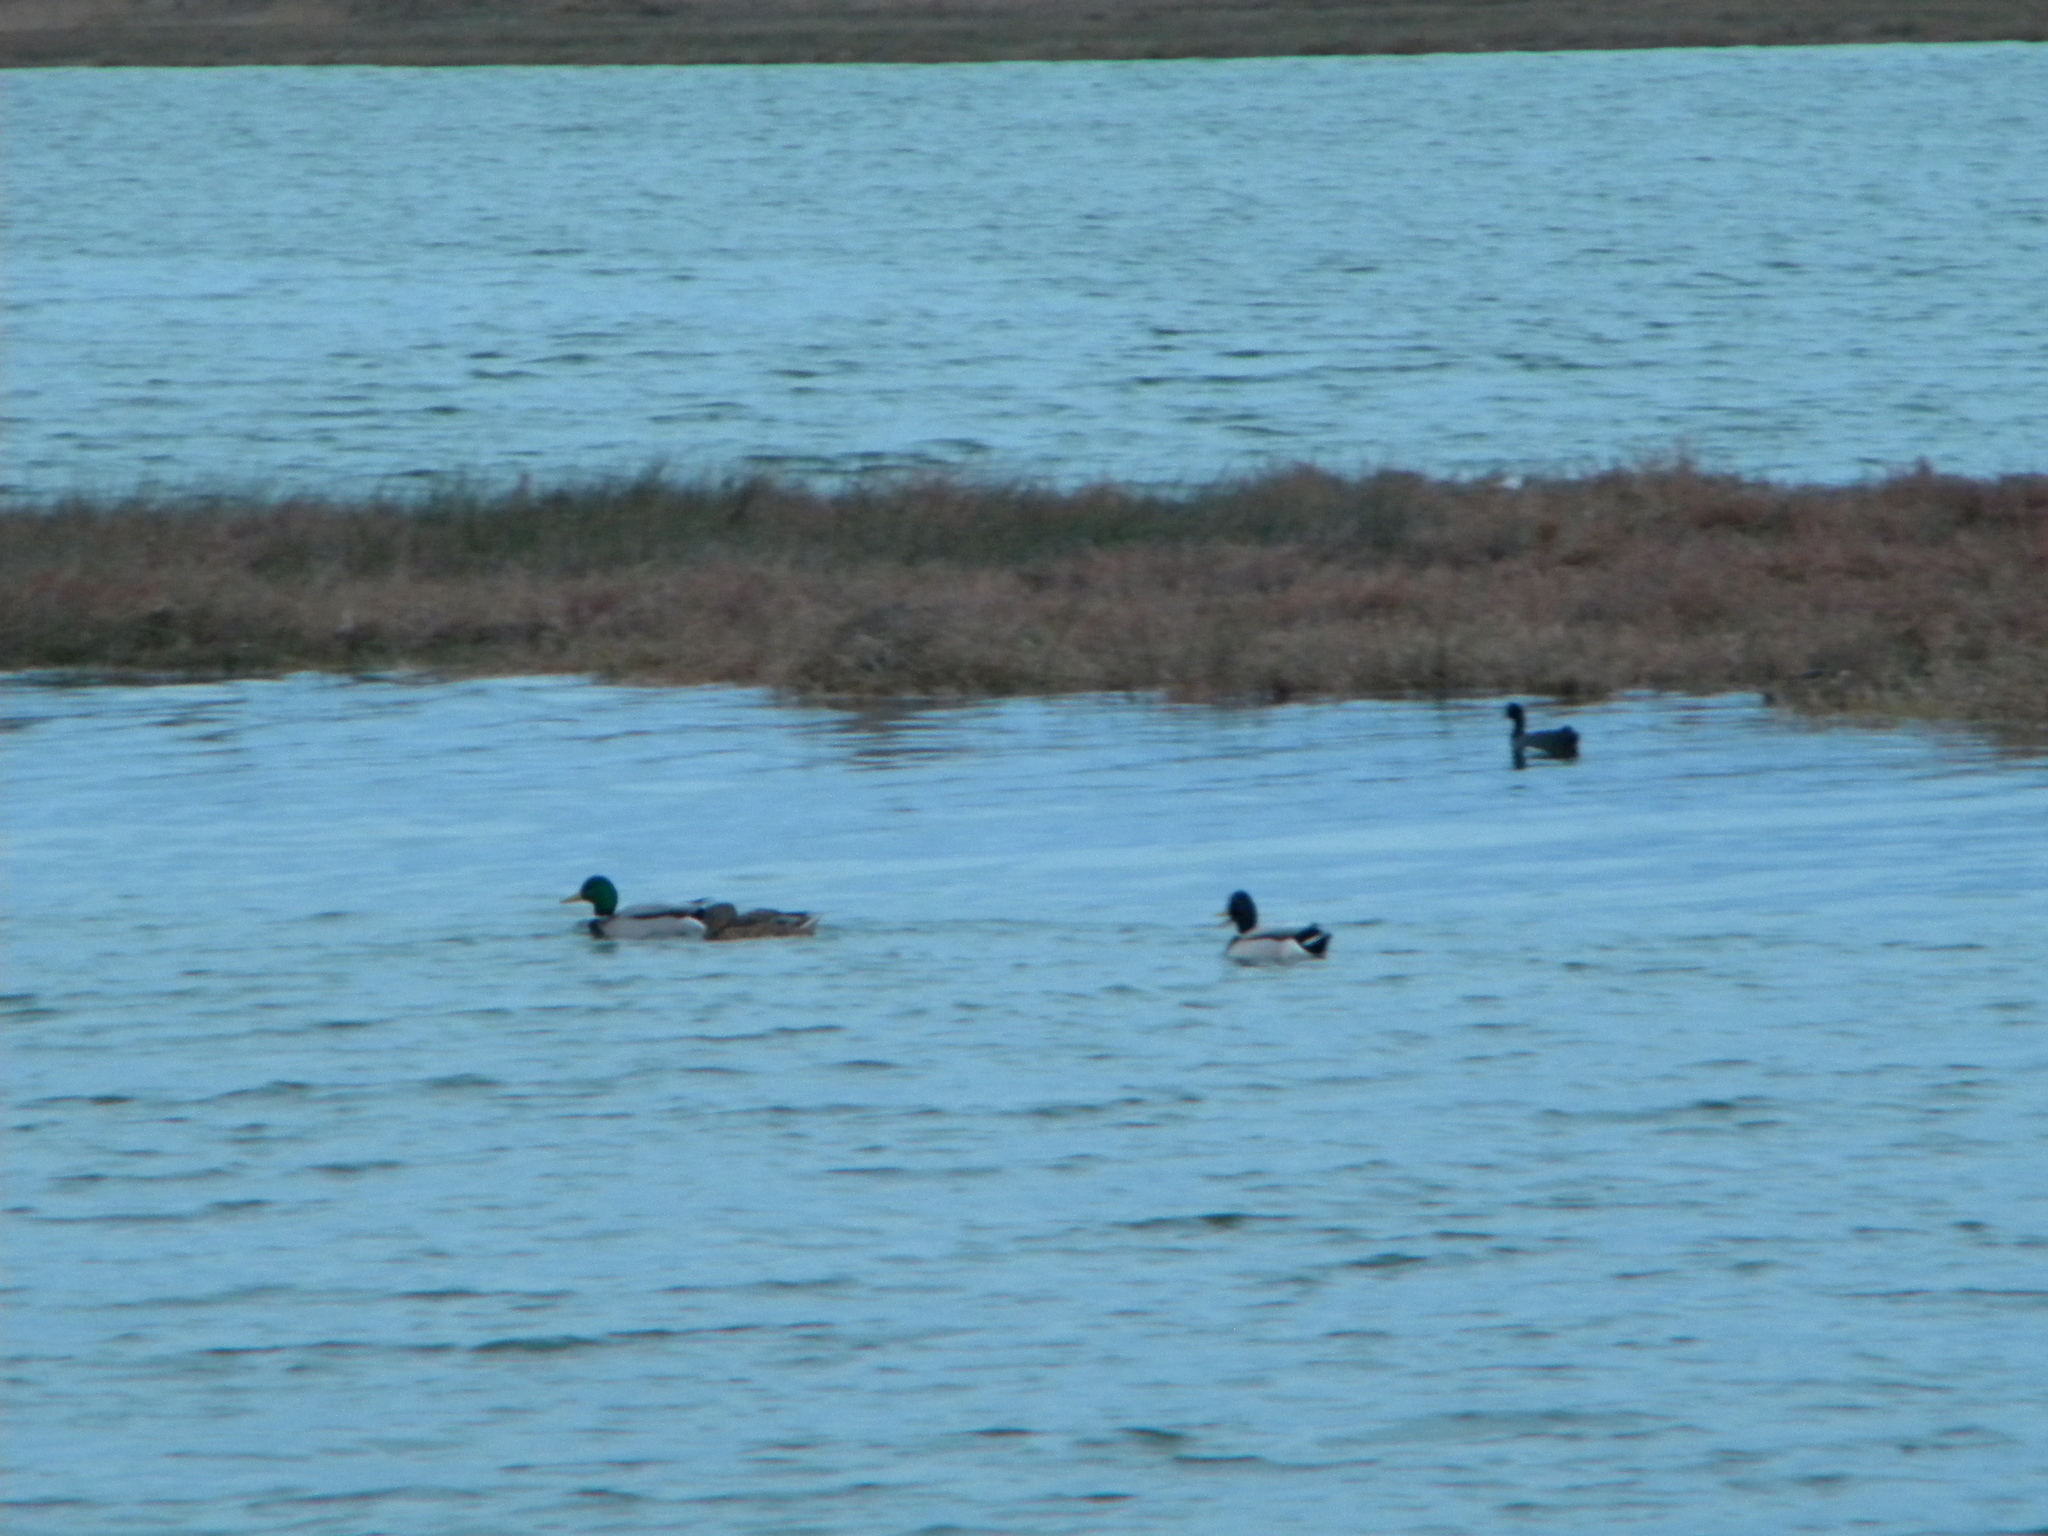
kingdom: Animalia
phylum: Chordata
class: Aves
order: Anseriformes
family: Anatidae
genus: Anas
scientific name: Anas platyrhynchos
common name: Mallard
